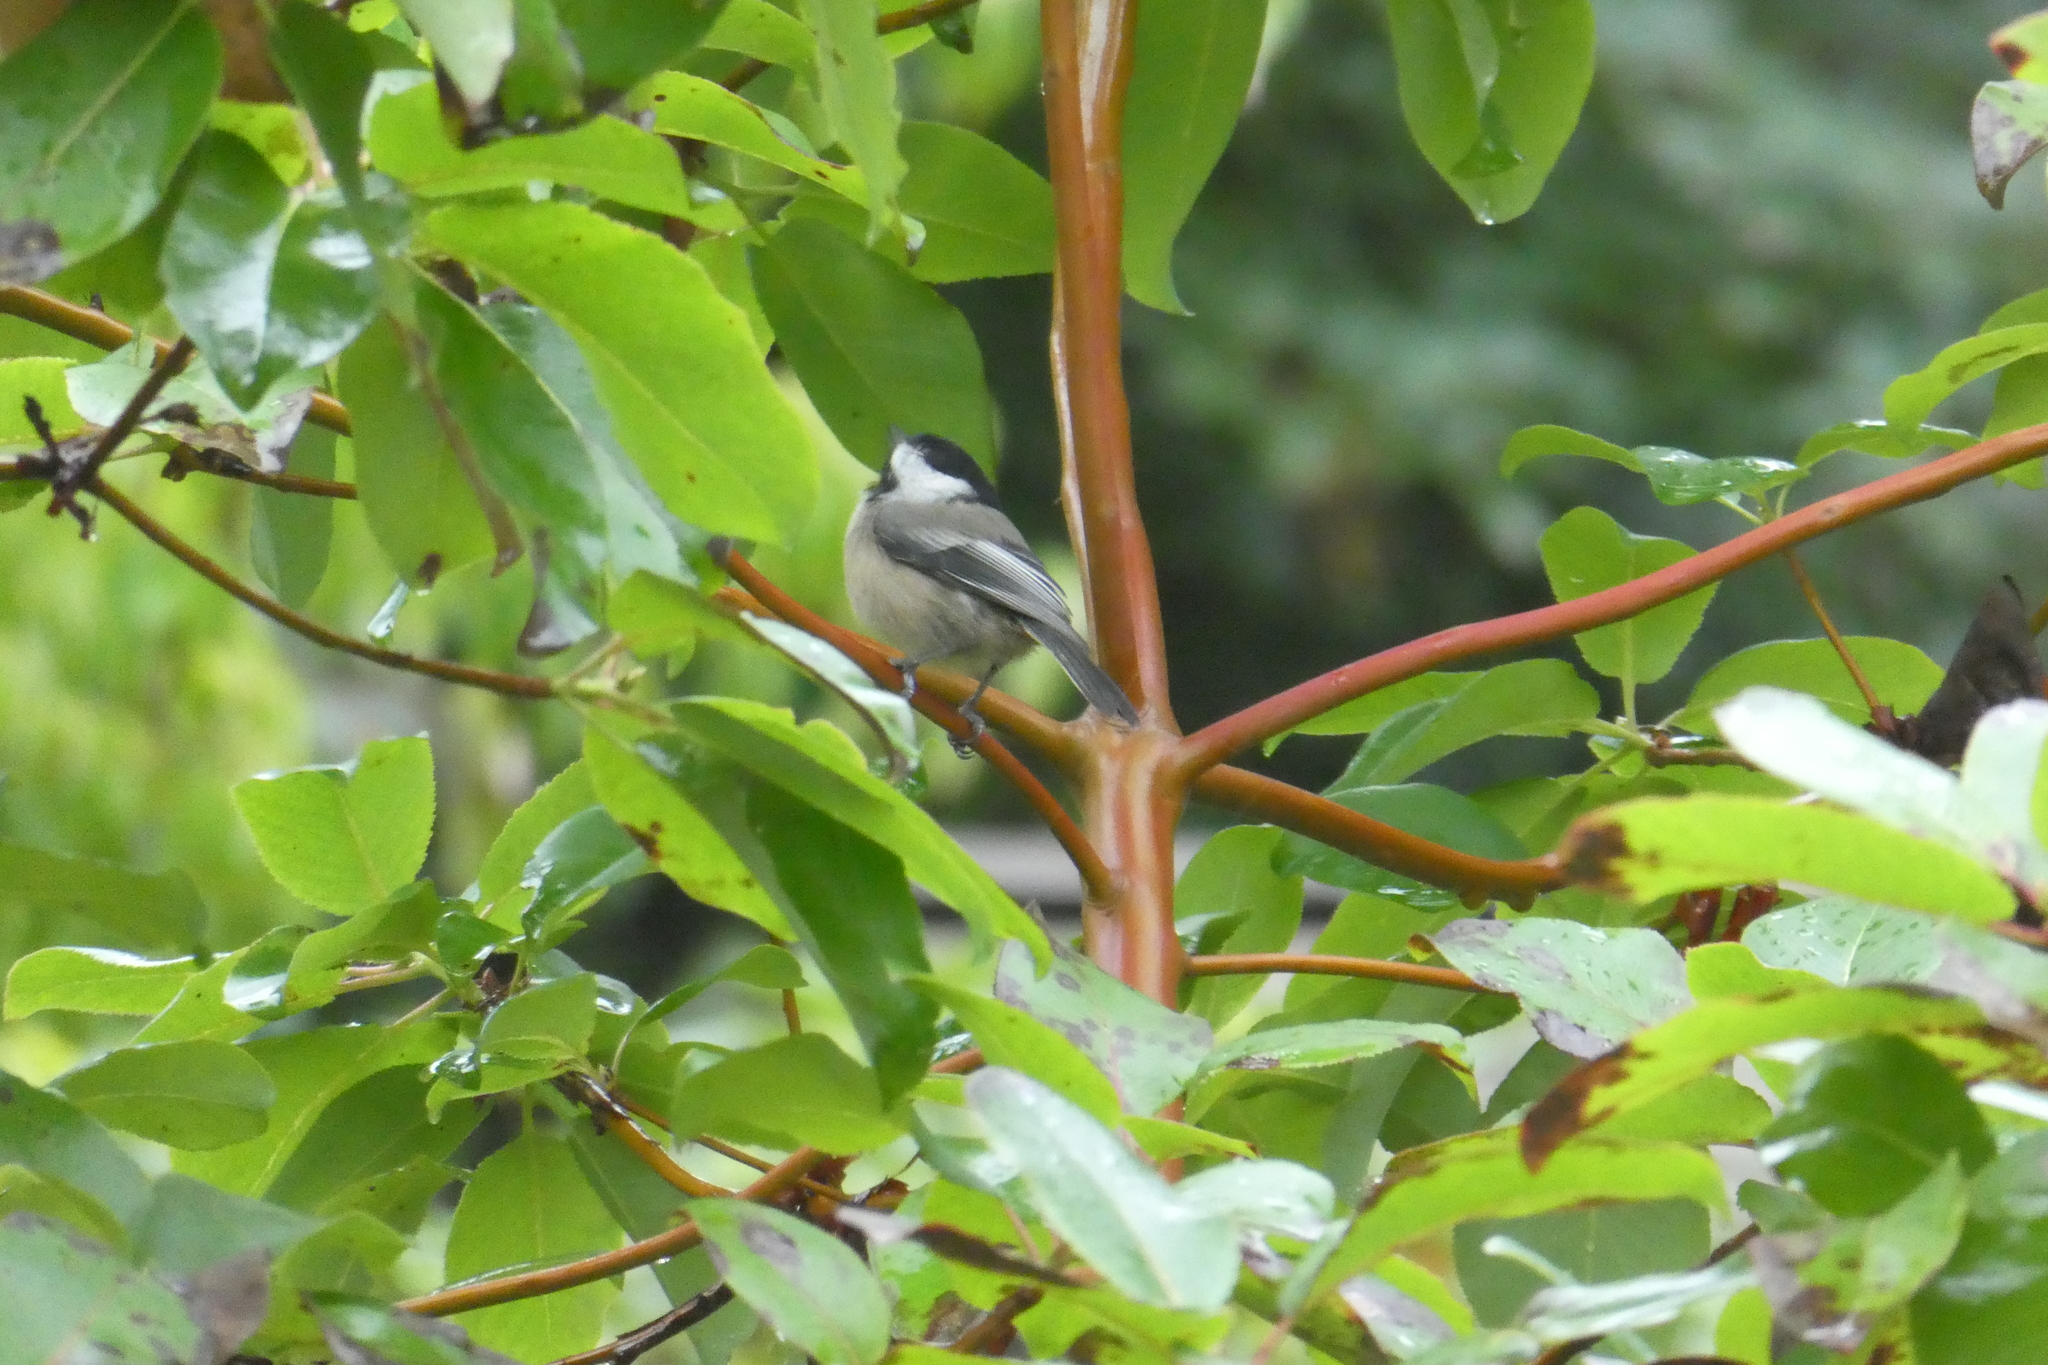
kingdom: Animalia
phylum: Chordata
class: Aves
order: Passeriformes
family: Paridae
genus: Poecile
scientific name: Poecile atricapillus
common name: Black-capped chickadee
